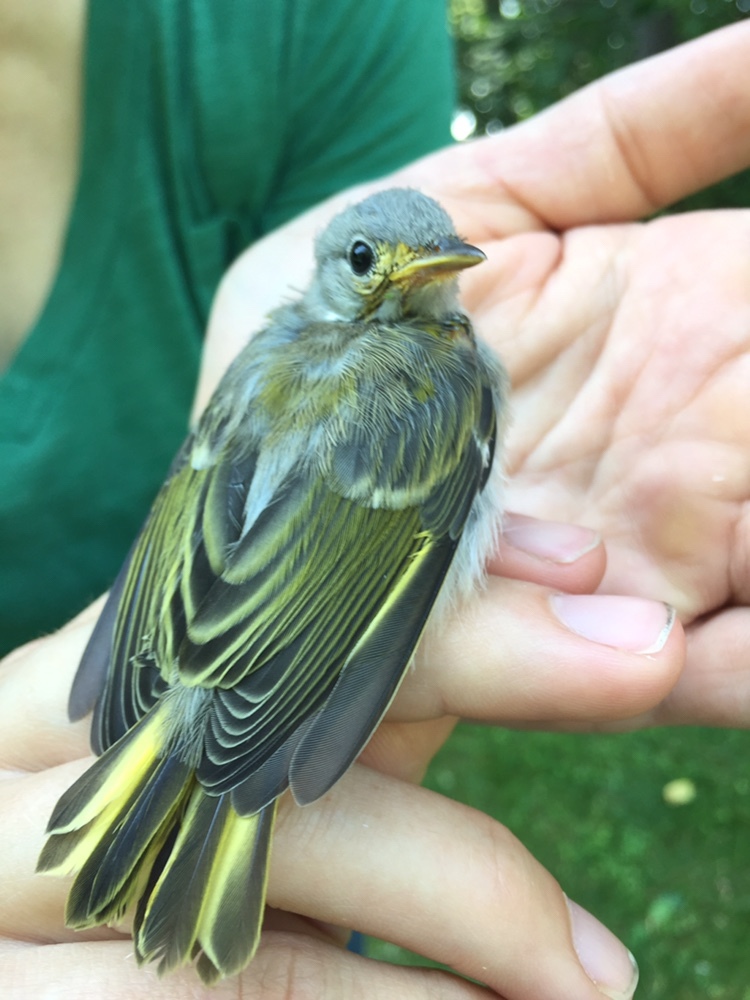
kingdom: Animalia
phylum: Chordata
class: Aves
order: Passeriformes
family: Parulidae
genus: Setophaga
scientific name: Setophaga petechia
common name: Yellow warbler
